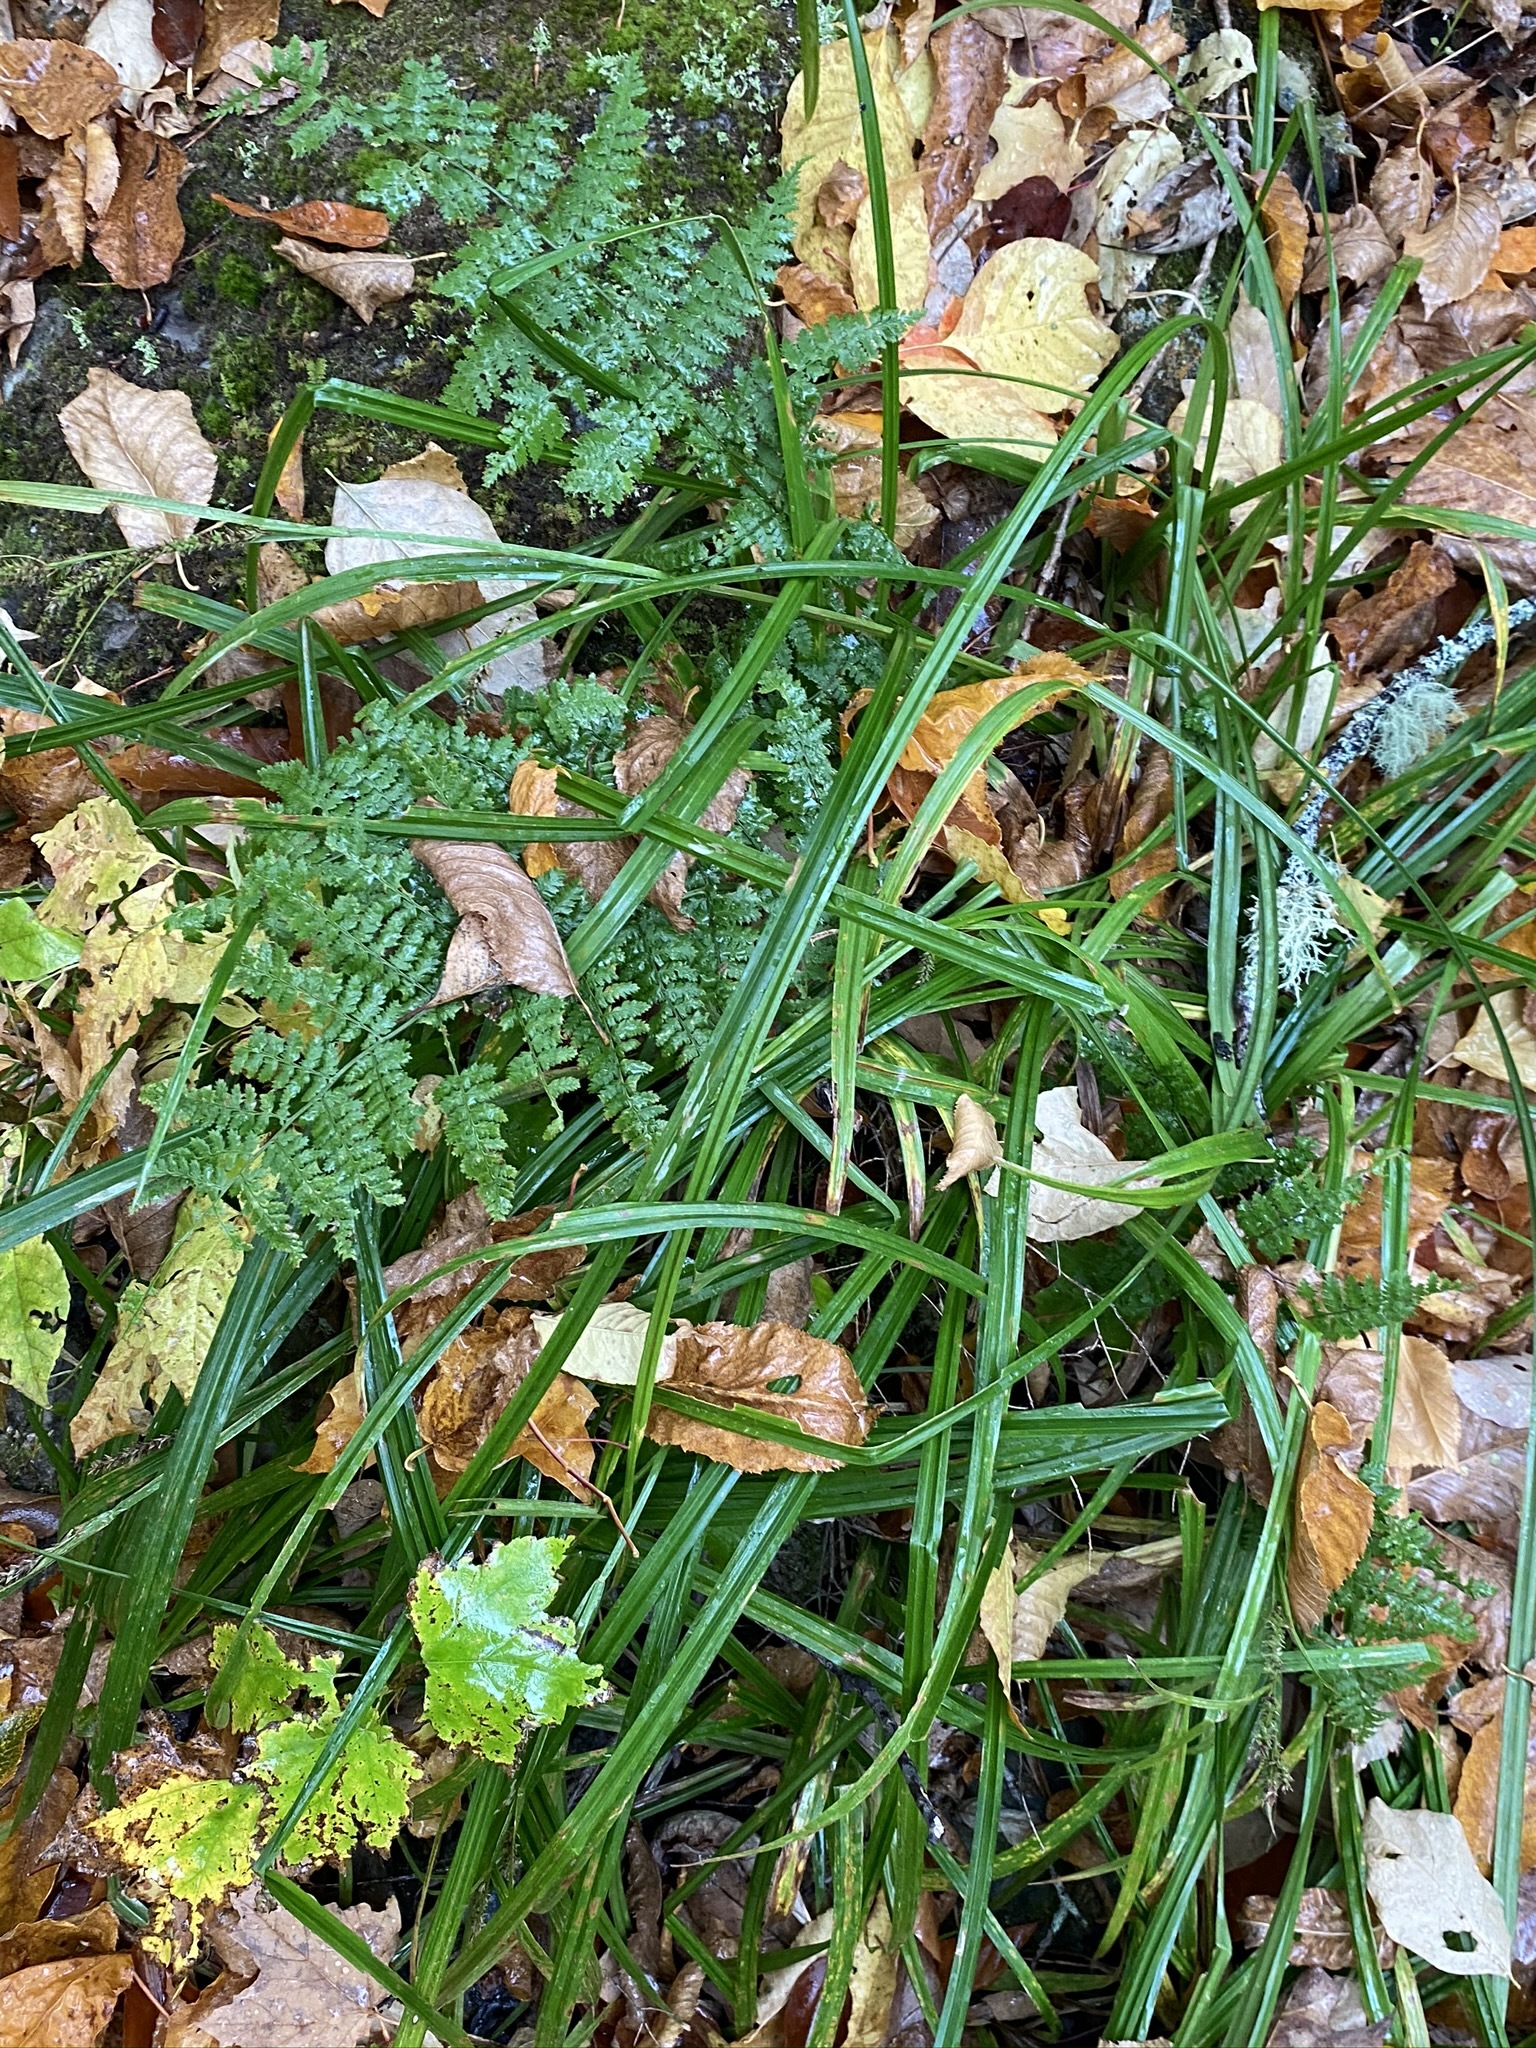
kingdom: Plantae
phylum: Tracheophyta
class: Liliopsida
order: Poales
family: Cyperaceae
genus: Carex
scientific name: Carex scabrata
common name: Eastern rough sedge
